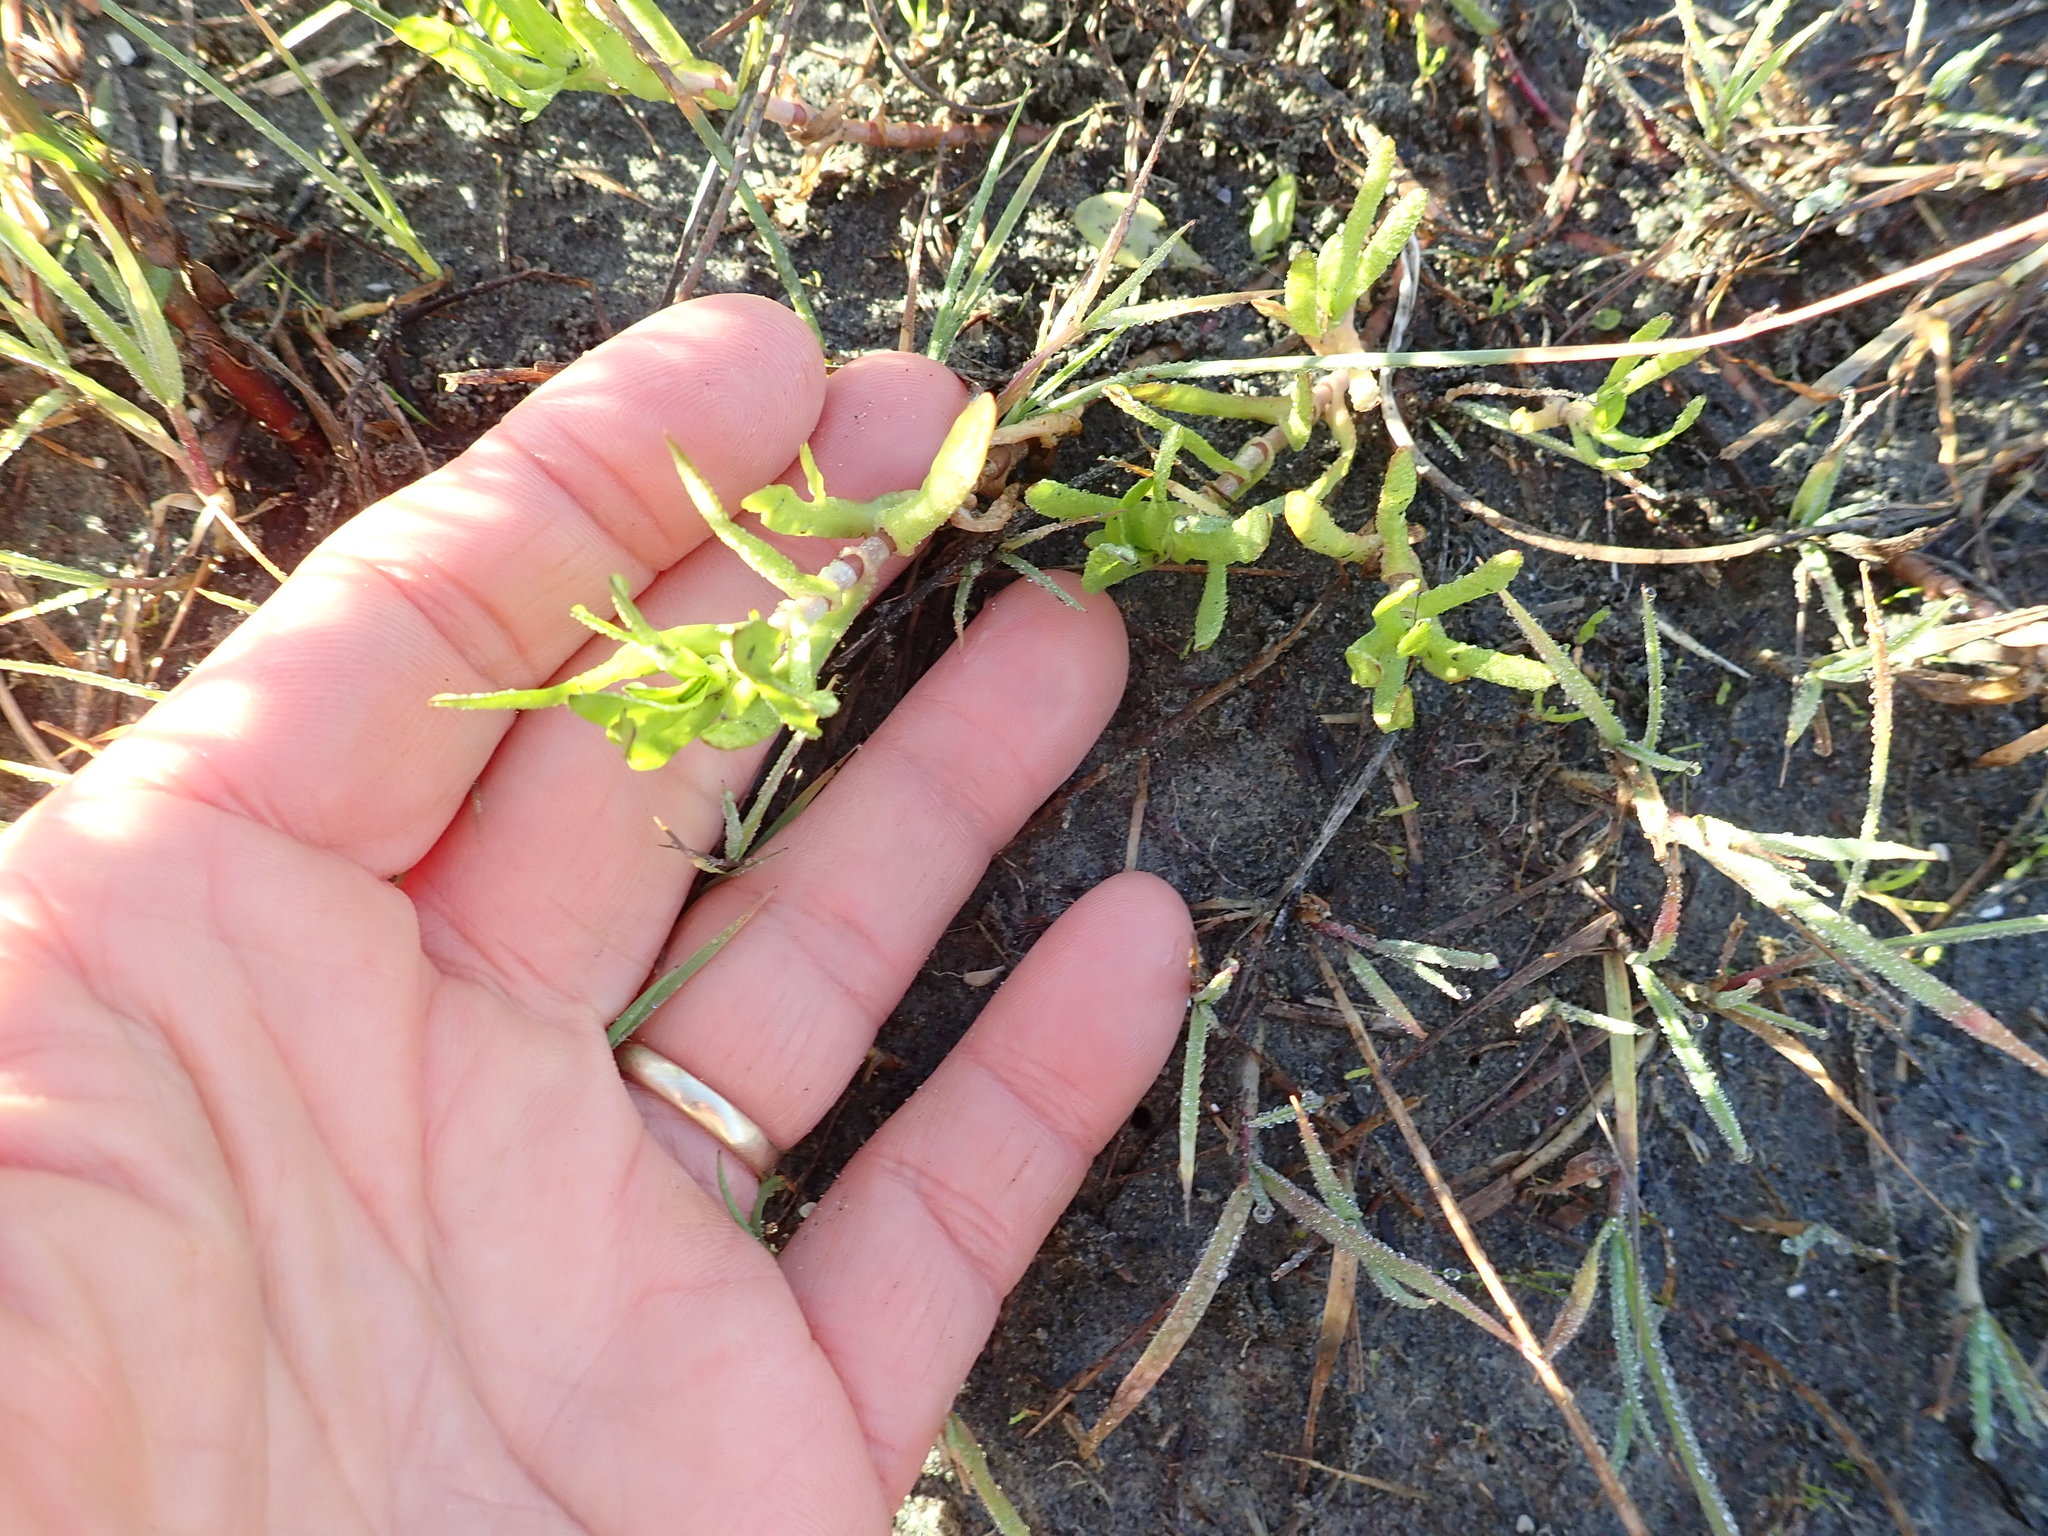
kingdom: Plantae
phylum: Tracheophyta
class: Magnoliopsida
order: Asterales
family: Asteraceae
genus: Cotula
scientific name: Cotula coronopifolia
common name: Buttonweed
